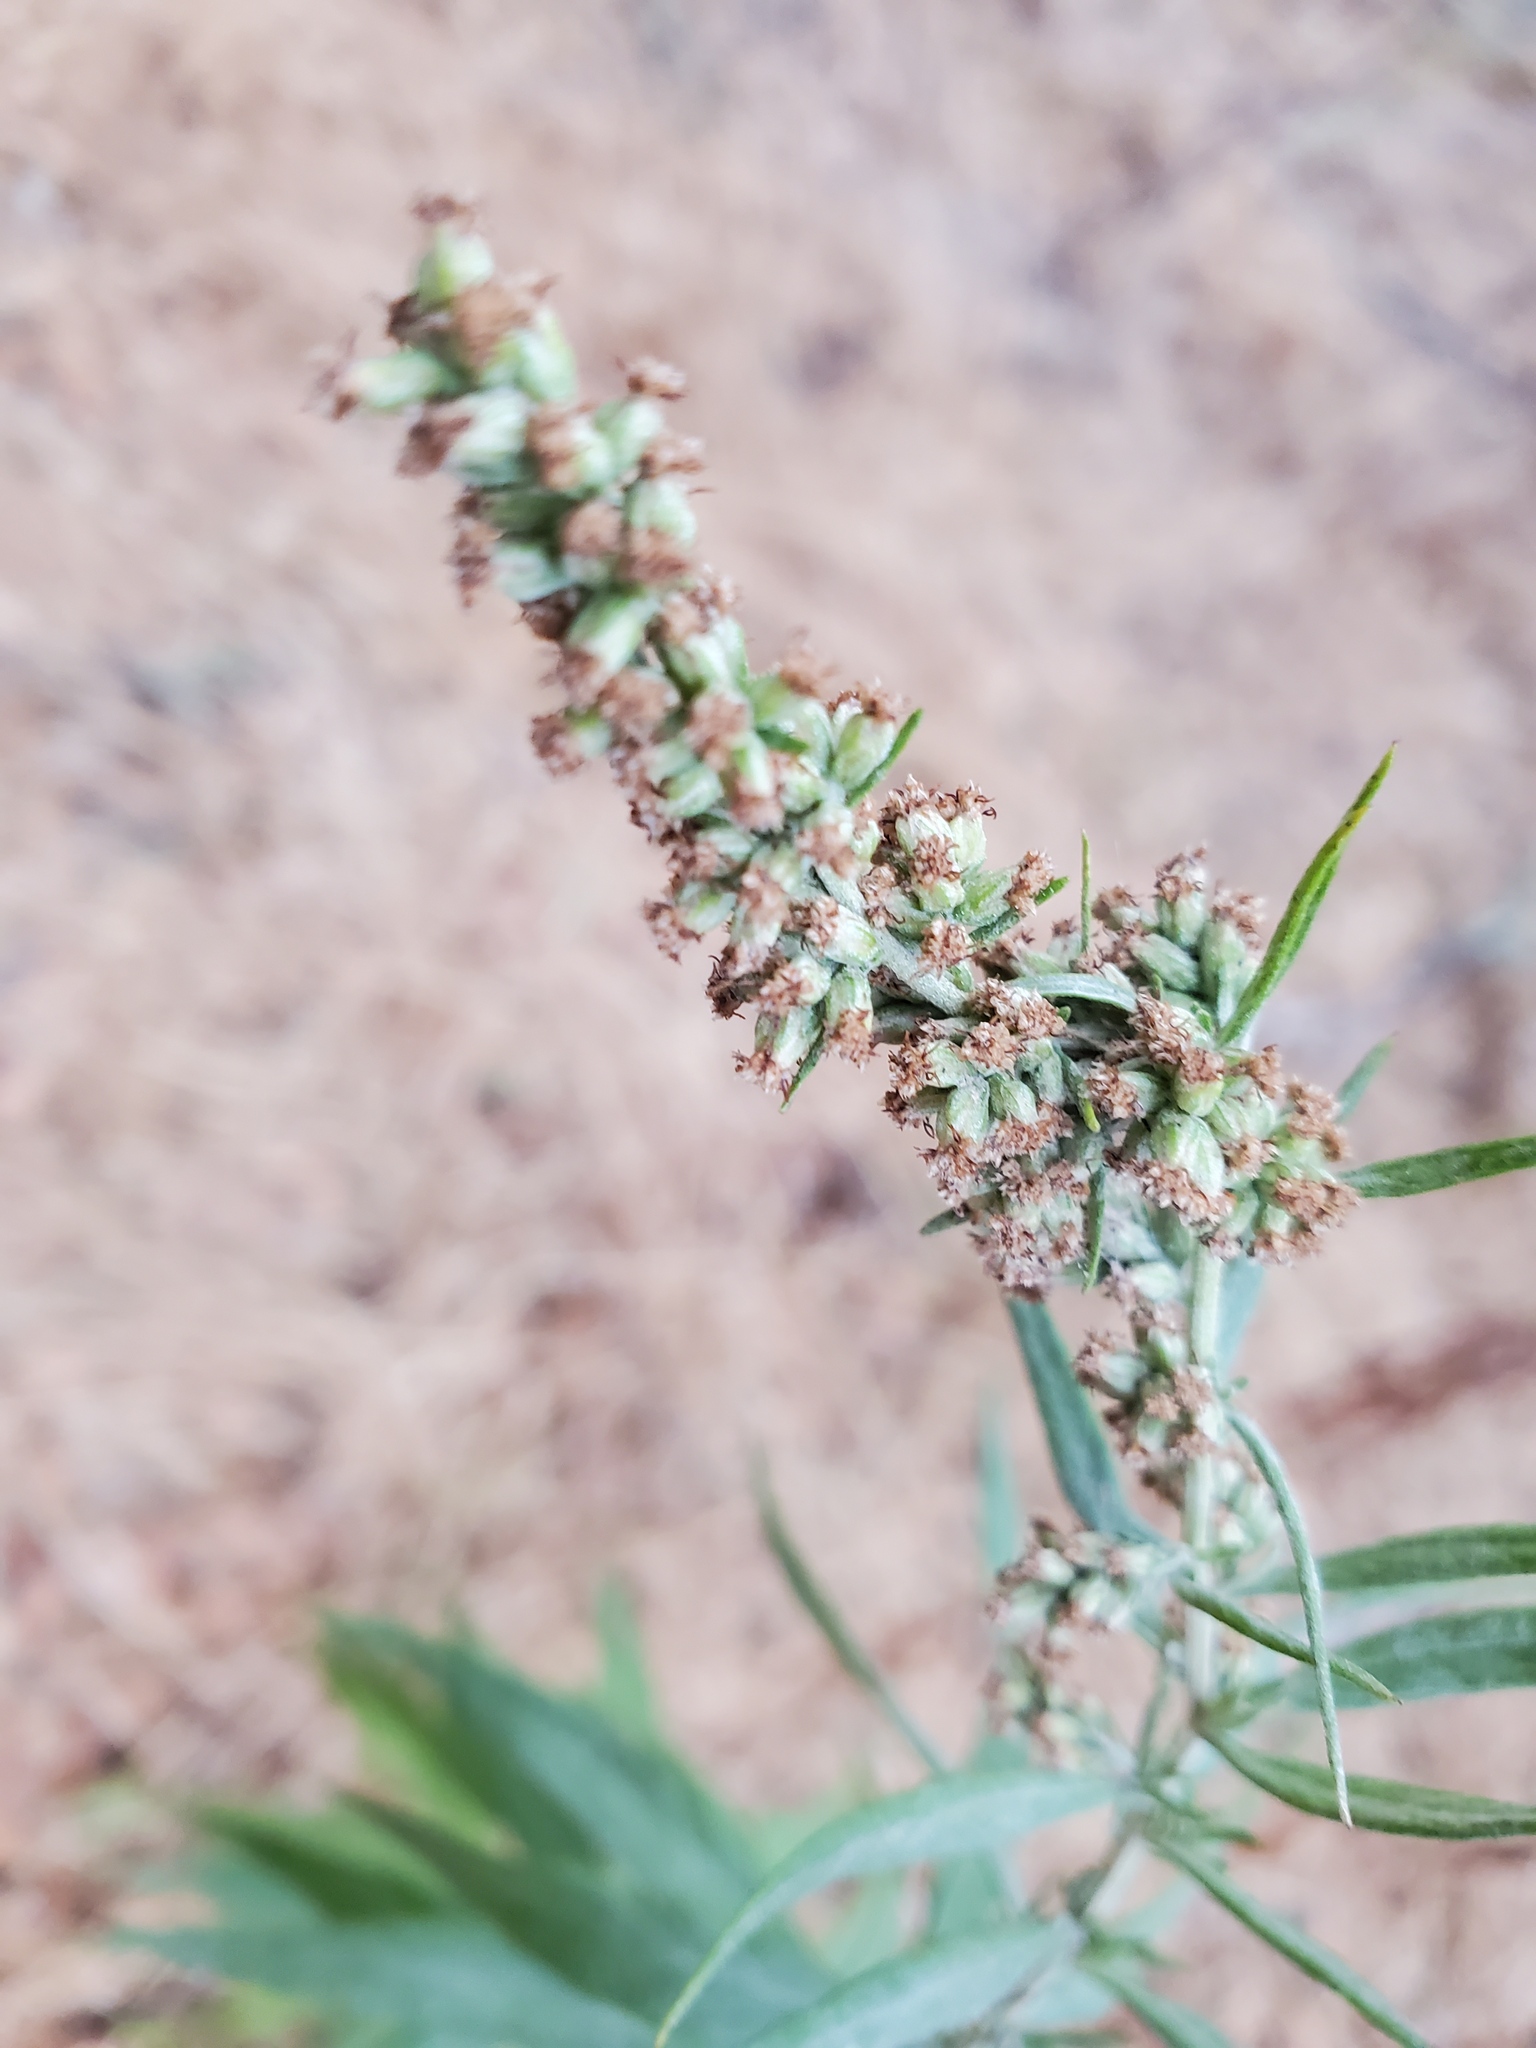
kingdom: Plantae
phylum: Tracheophyta
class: Magnoliopsida
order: Asterales
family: Asteraceae
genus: Artemisia
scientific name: Artemisia douglasiana
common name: Northwest mugwort
